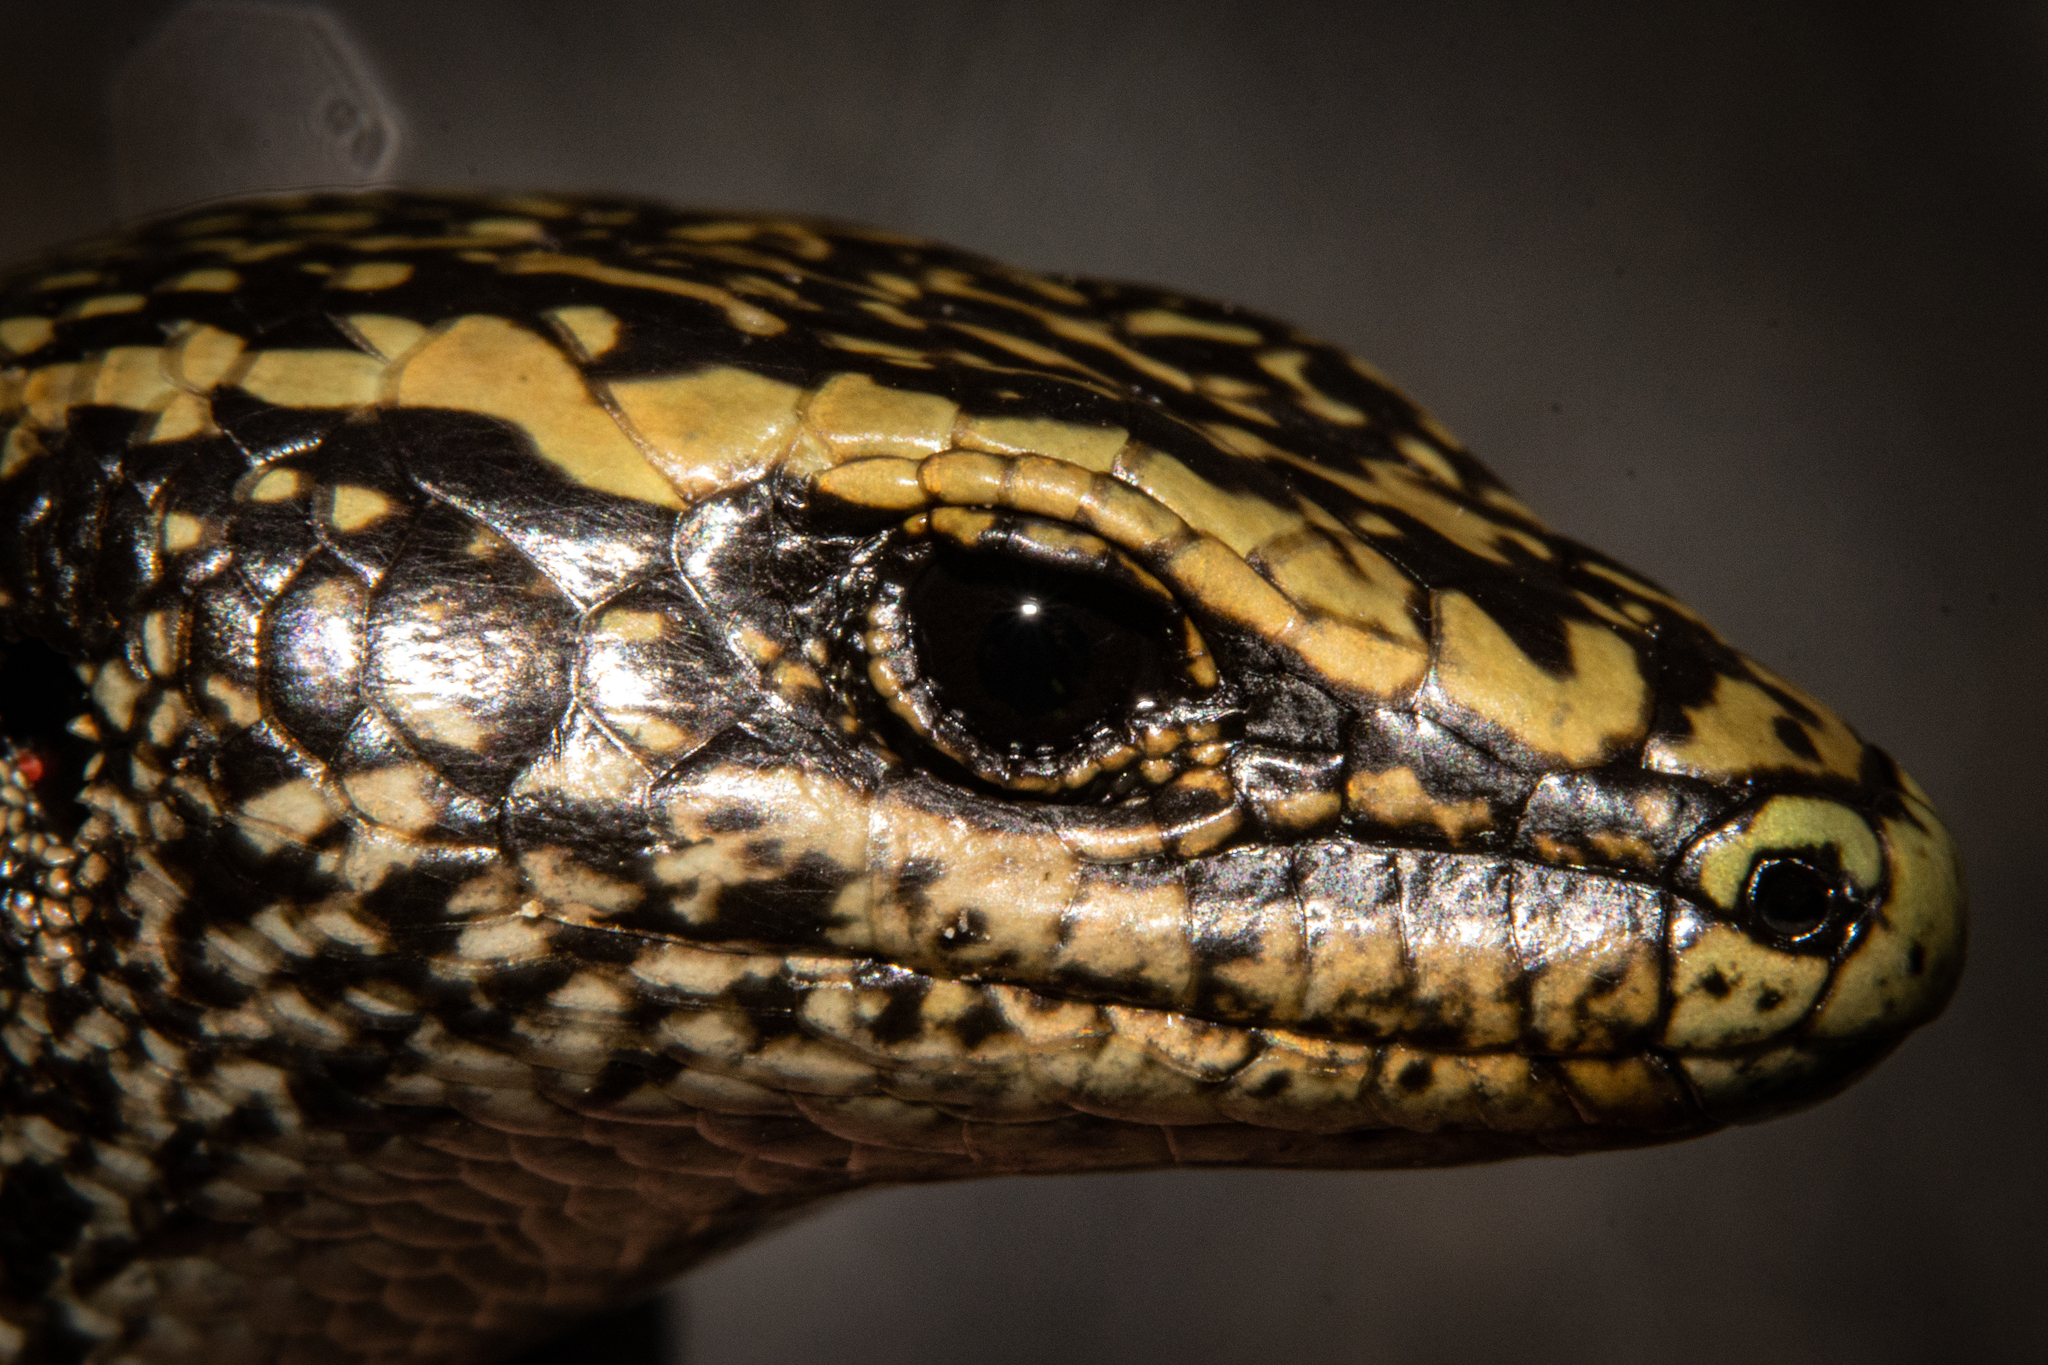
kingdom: Animalia
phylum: Chordata
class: Squamata
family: Scincidae
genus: Oligosoma
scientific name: Oligosoma judgei
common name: Barrier skink
